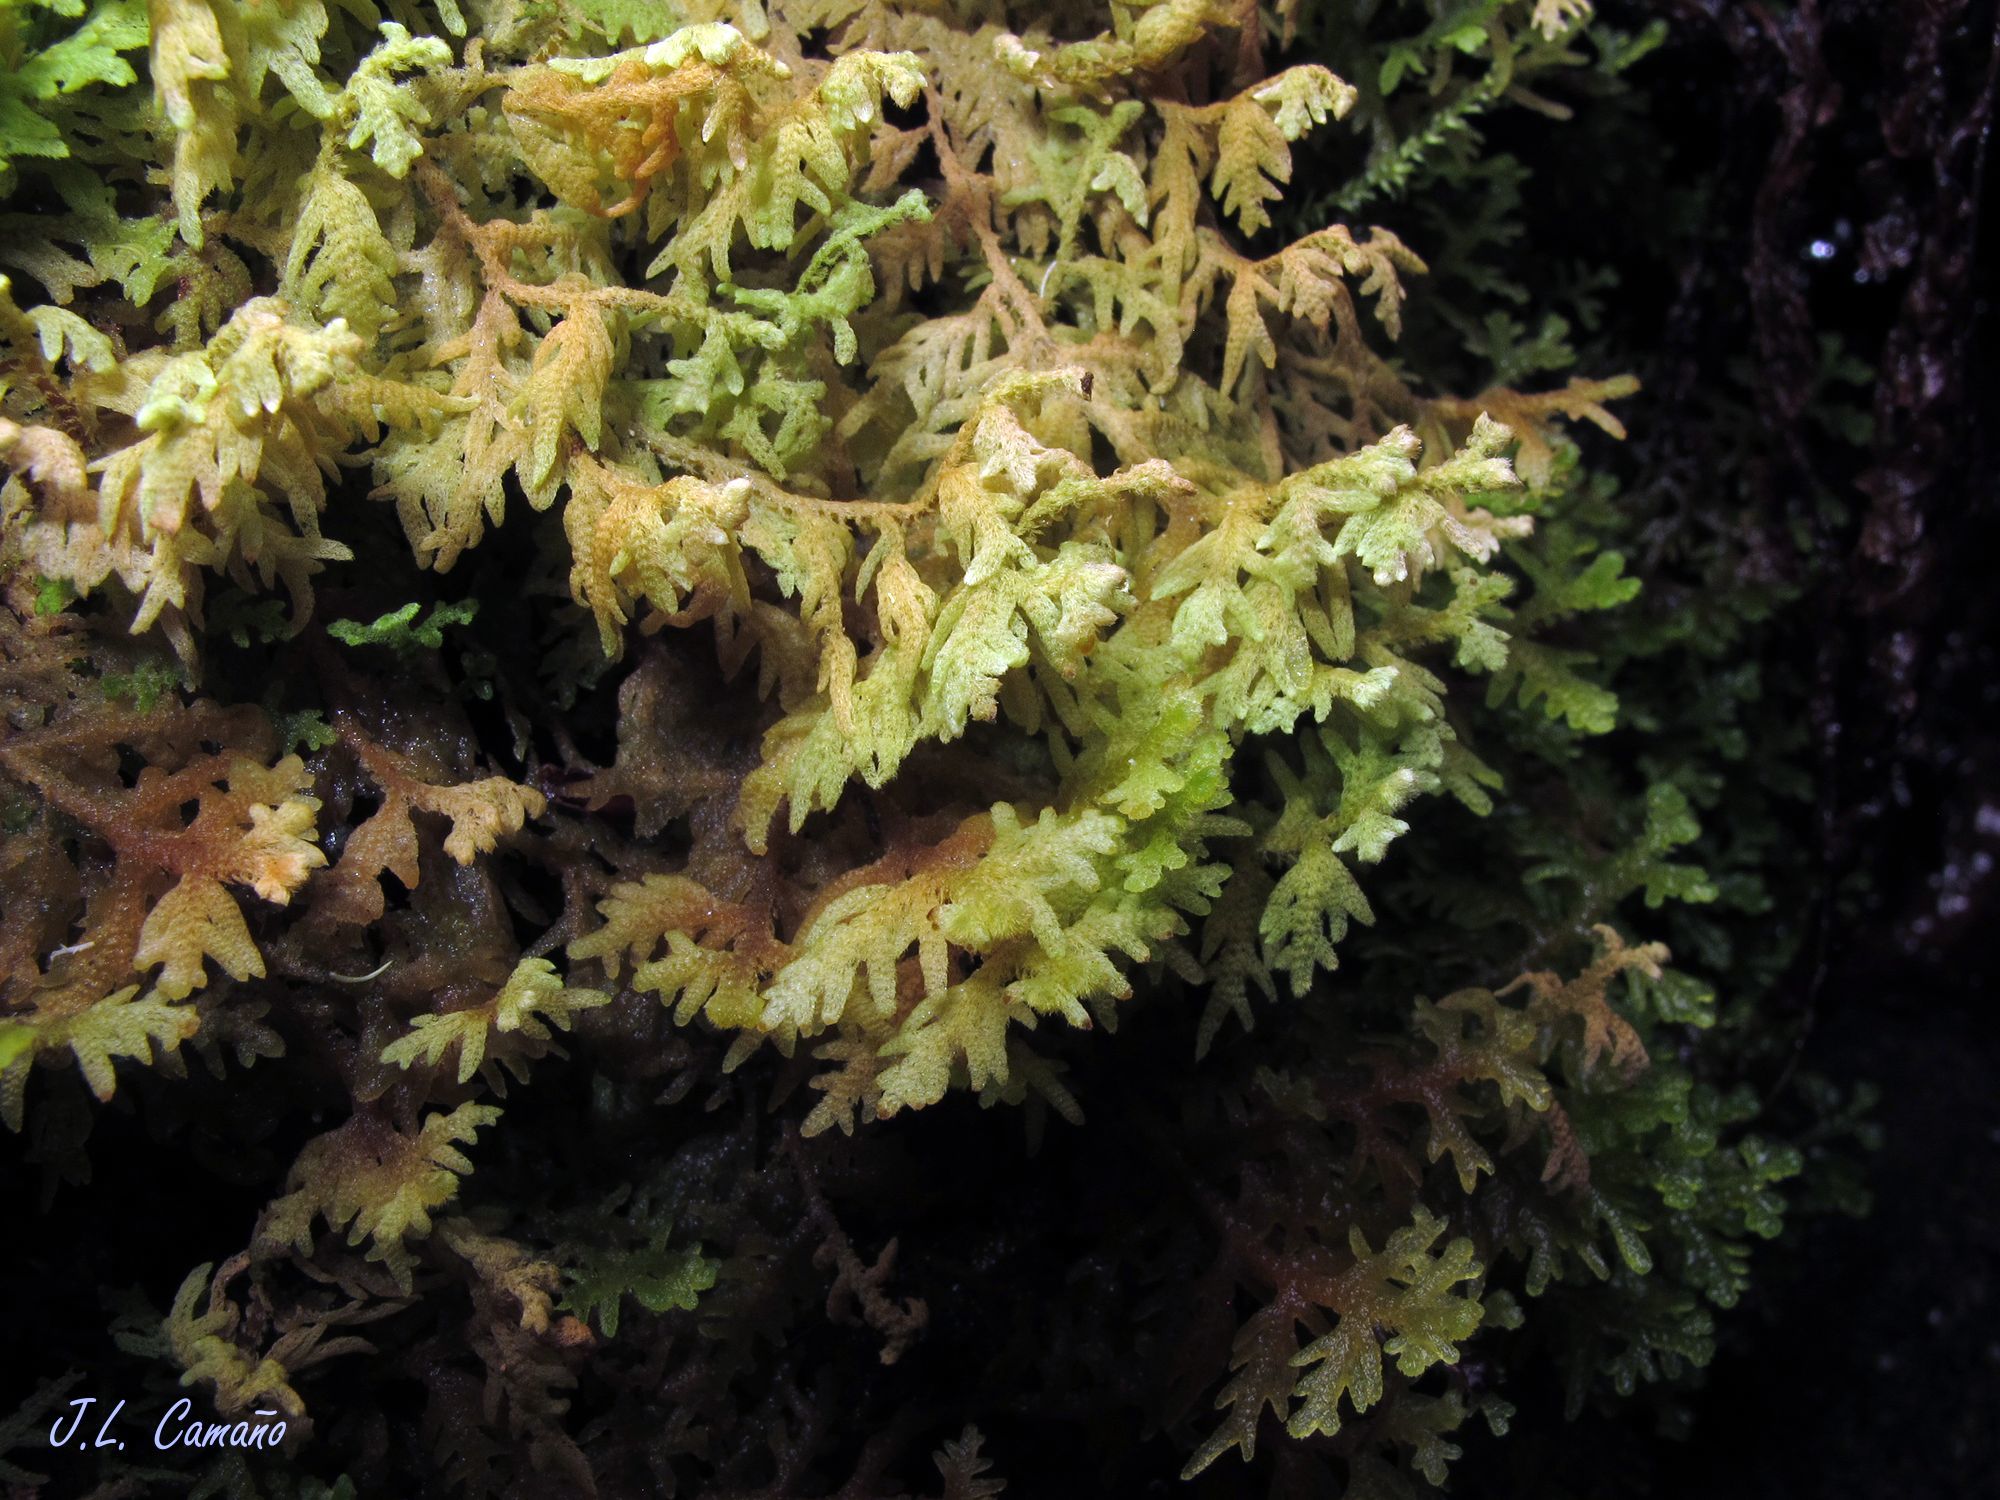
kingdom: Plantae
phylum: Marchantiophyta
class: Jungermanniopsida
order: Jungermanniales
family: Trichocoleaceae
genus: Trichocolea
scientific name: Trichocolea tomentella
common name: Woolly liverwort
